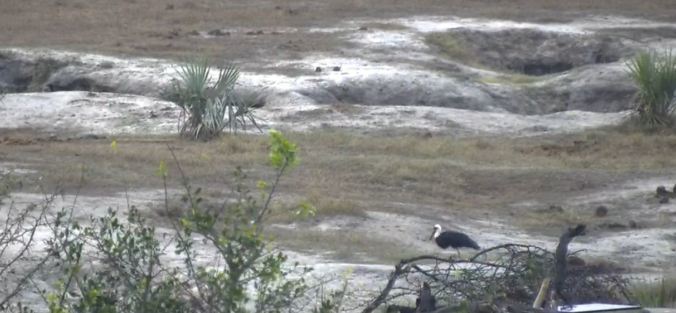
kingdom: Animalia
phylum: Chordata
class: Aves
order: Ciconiiformes
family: Ciconiidae
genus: Ciconia
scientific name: Ciconia microscelis
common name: African woollyneck
